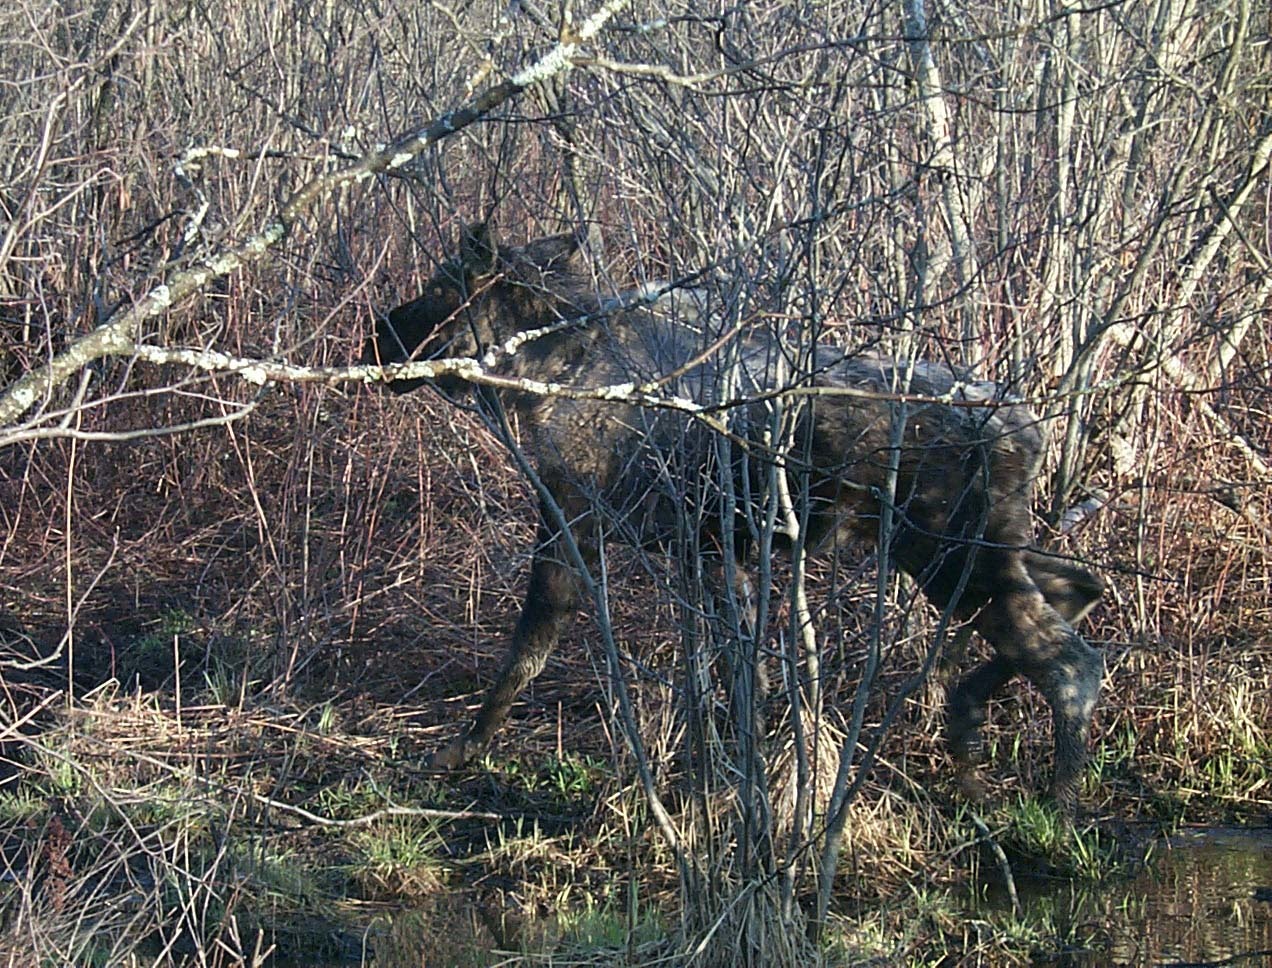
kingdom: Animalia
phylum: Chordata
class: Mammalia
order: Artiodactyla
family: Cervidae
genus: Alces
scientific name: Alces alces
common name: Moose
